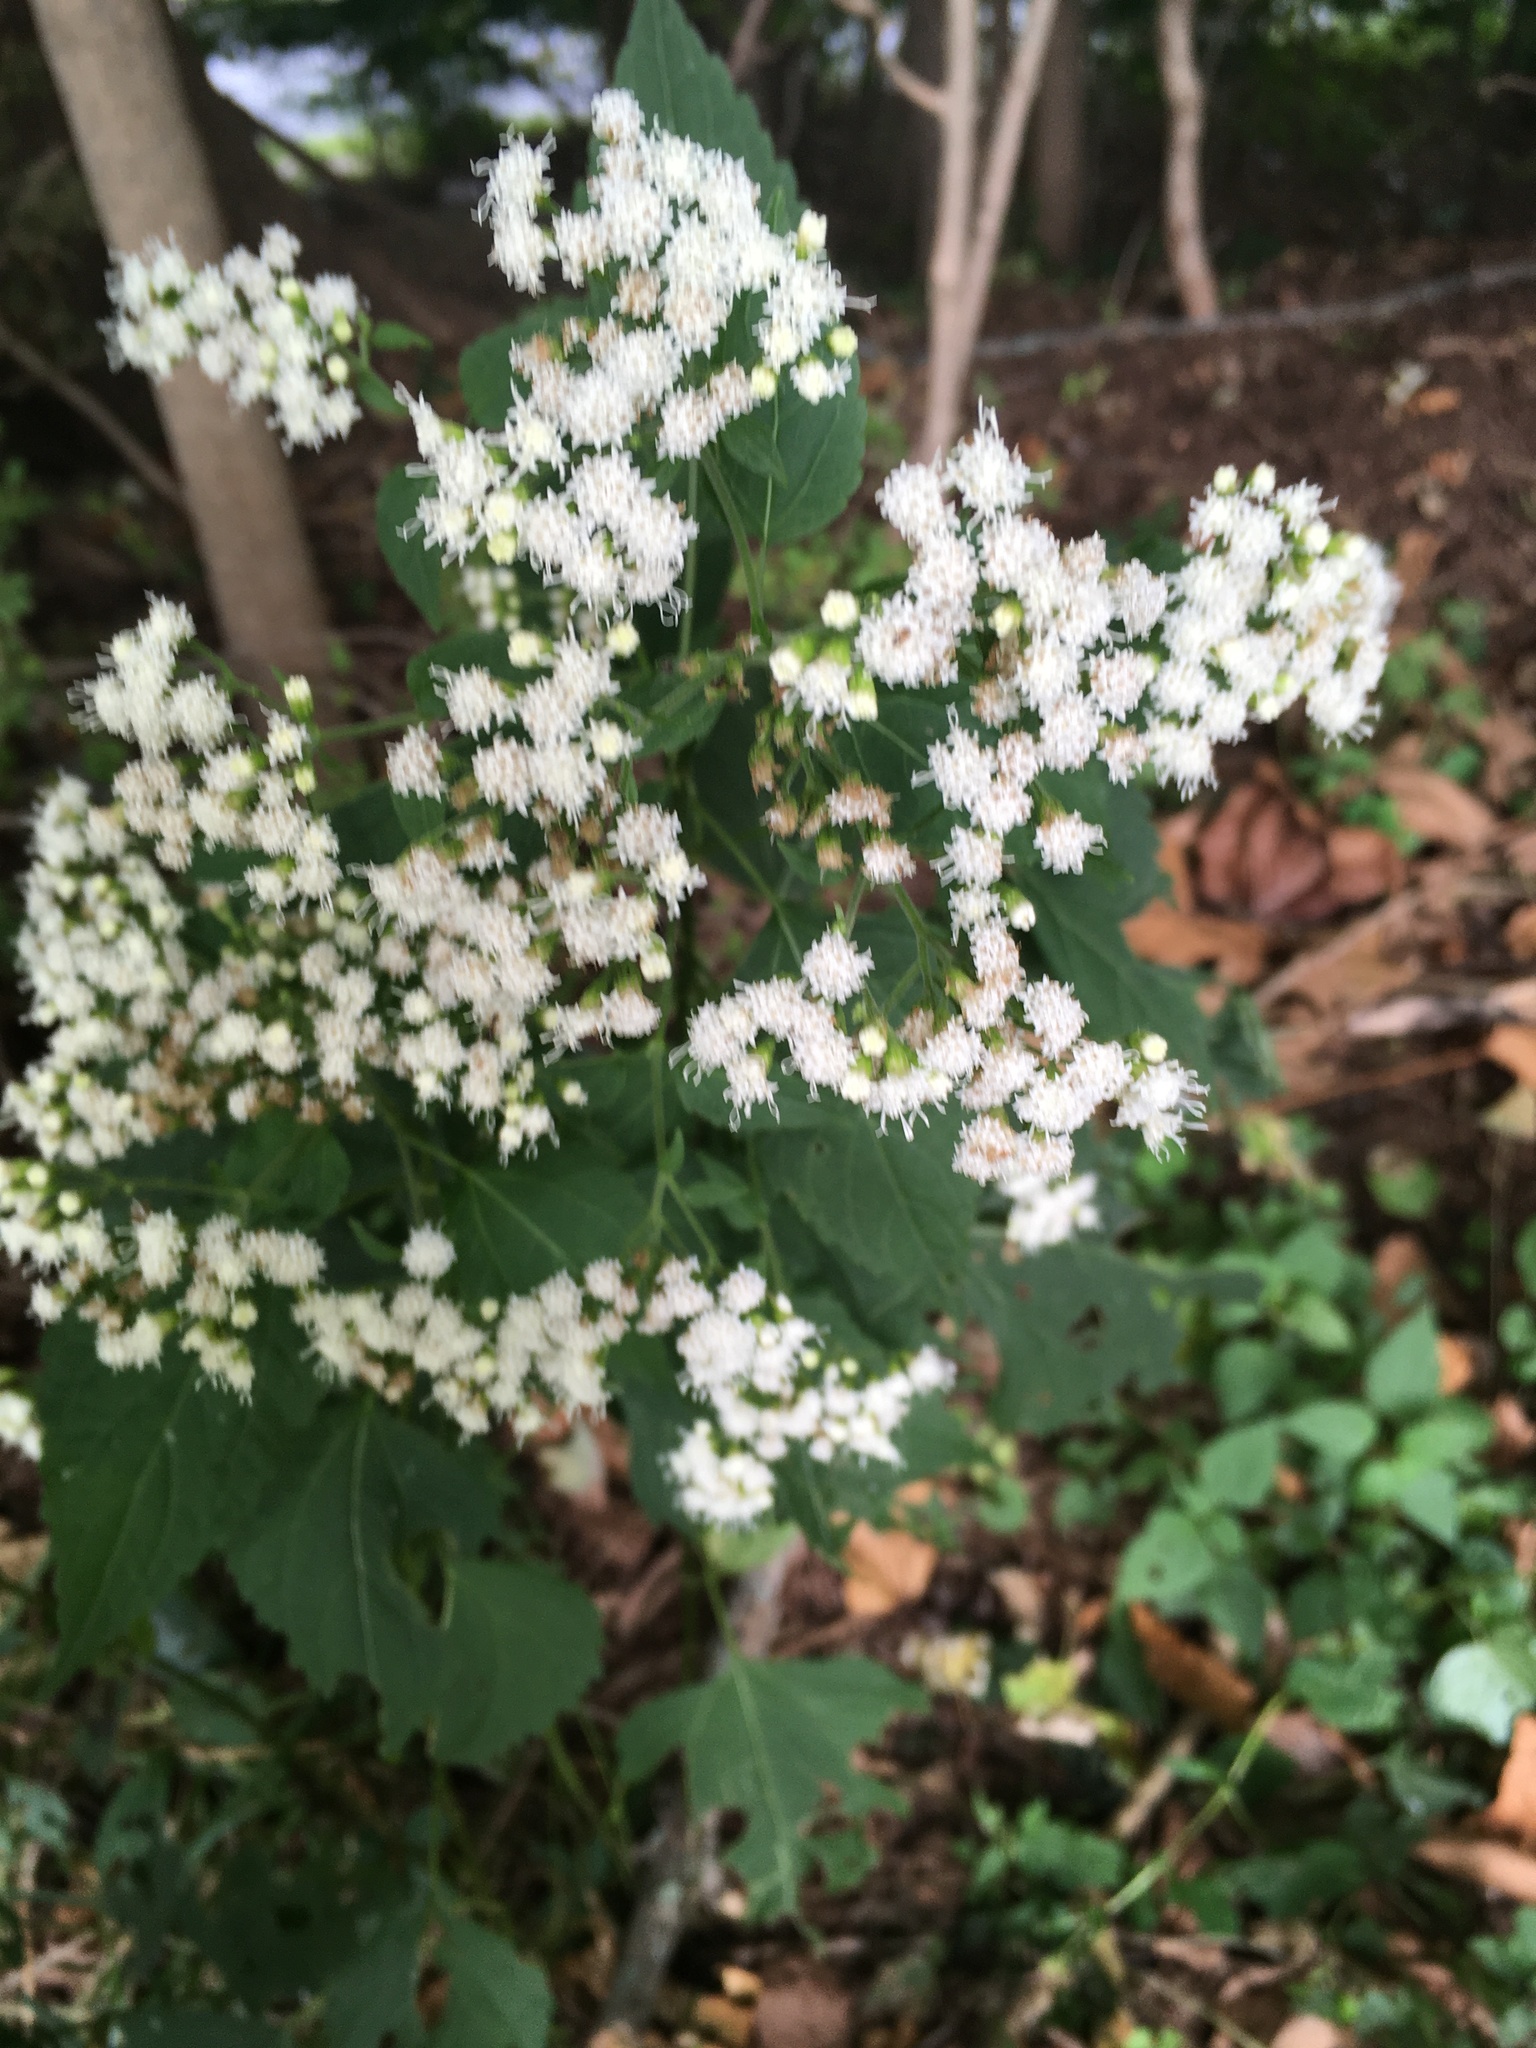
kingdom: Plantae
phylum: Tracheophyta
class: Magnoliopsida
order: Asterales
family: Asteraceae
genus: Ageratina
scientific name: Ageratina altissima
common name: White snakeroot
